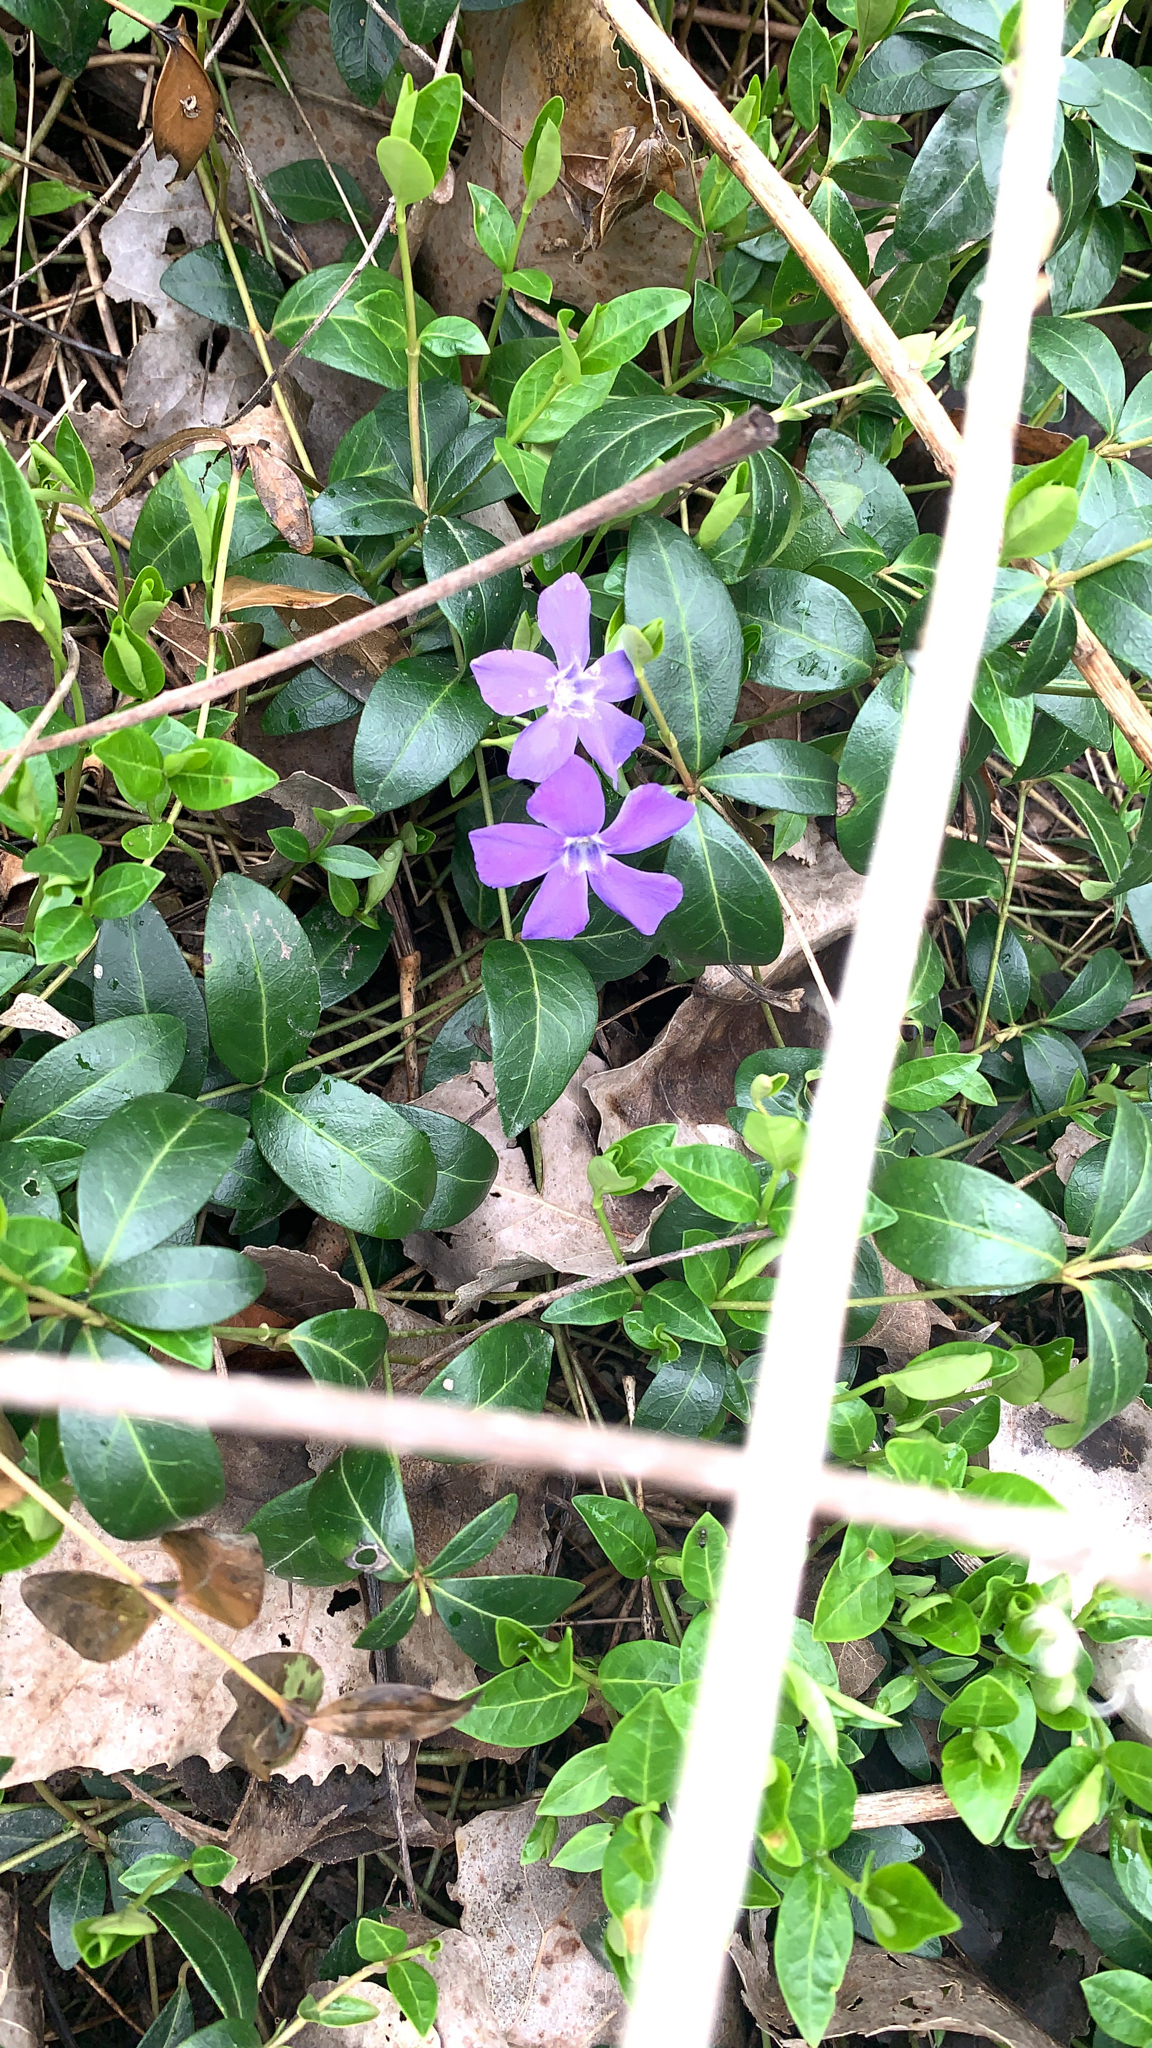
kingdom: Plantae
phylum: Tracheophyta
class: Magnoliopsida
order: Gentianales
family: Apocynaceae
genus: Vinca
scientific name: Vinca minor
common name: Lesser periwinkle
